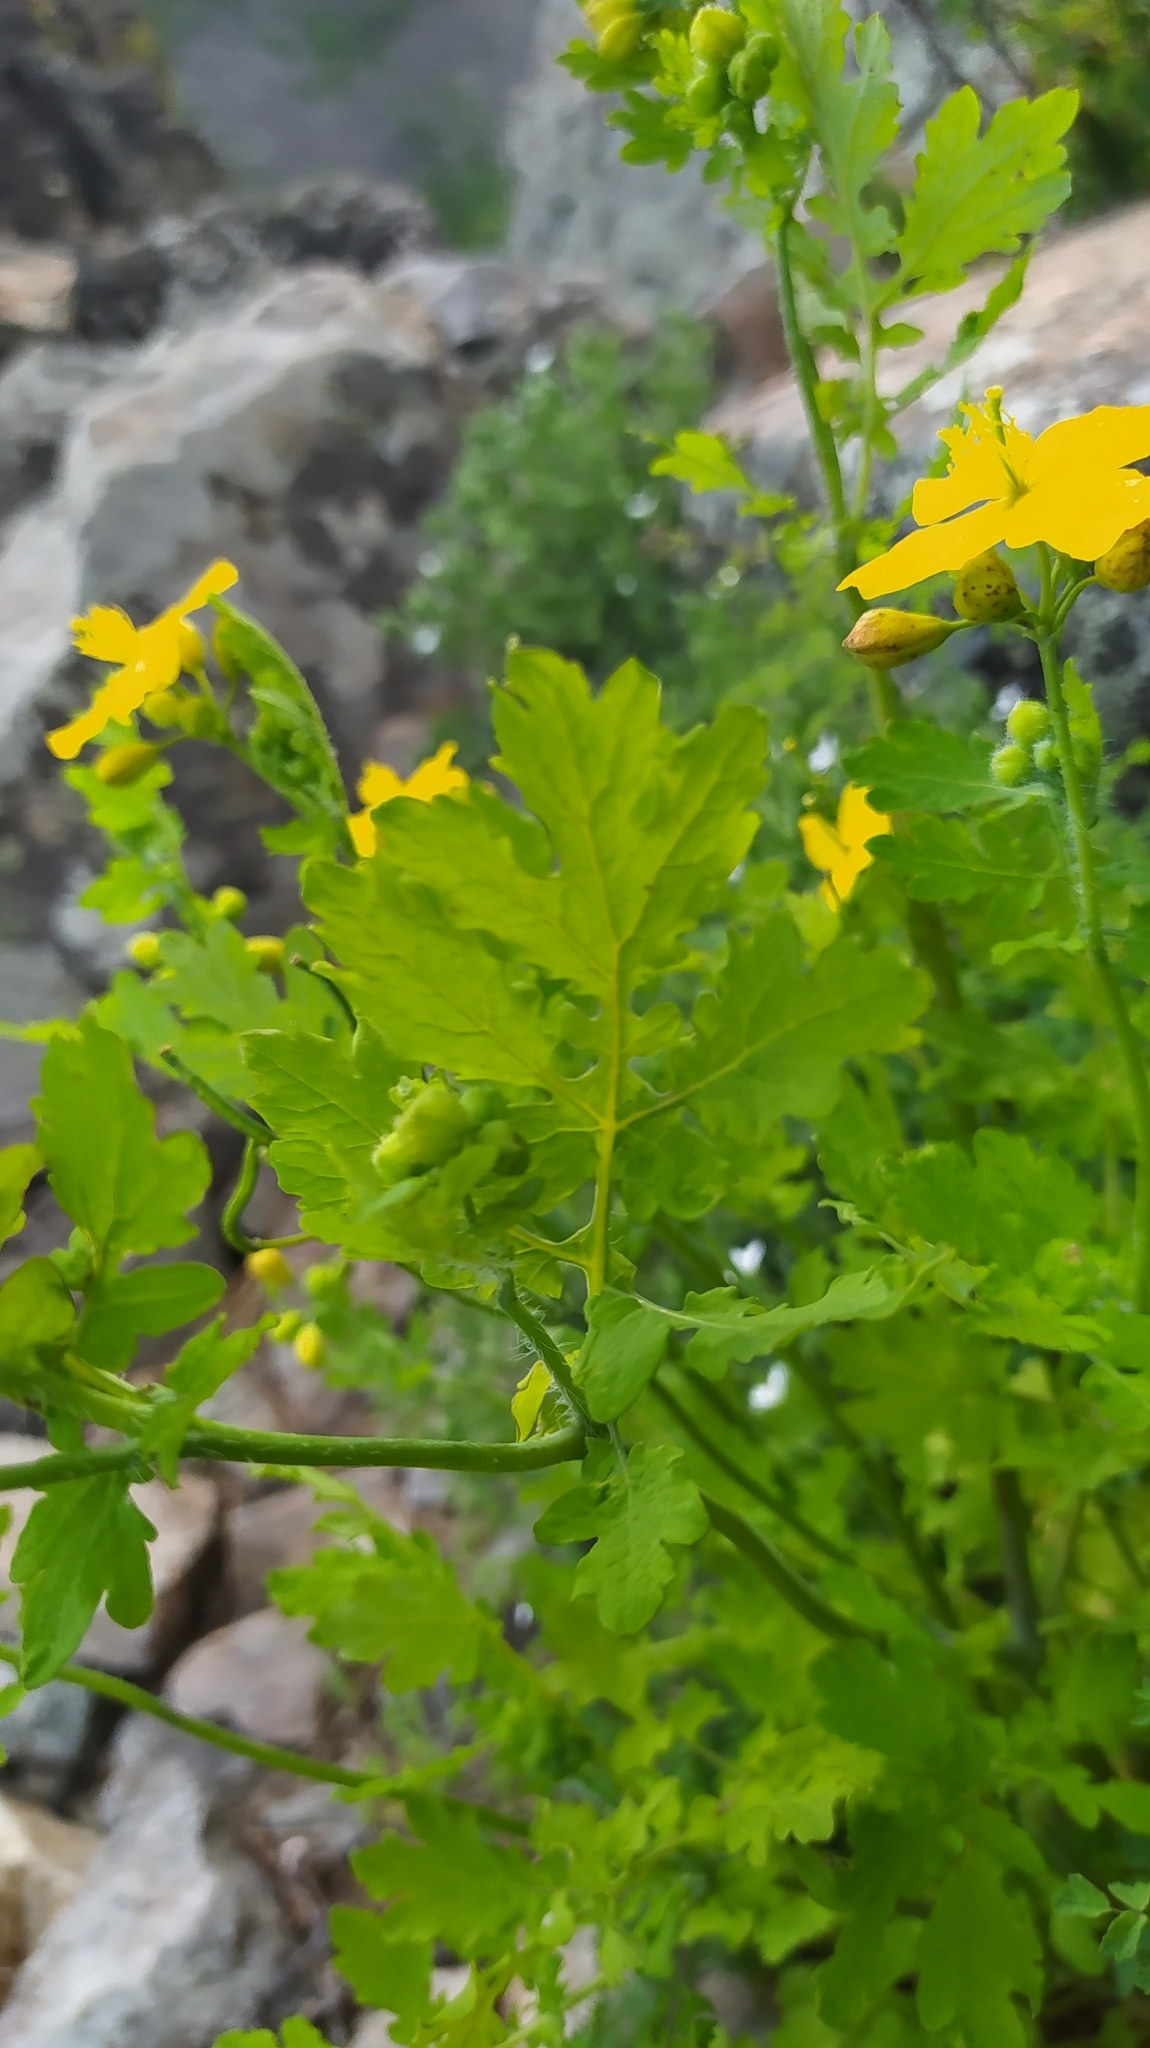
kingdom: Plantae
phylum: Tracheophyta
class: Magnoliopsida
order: Ranunculales
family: Papaveraceae
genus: Chelidonium
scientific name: Chelidonium majus
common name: Greater celandine
